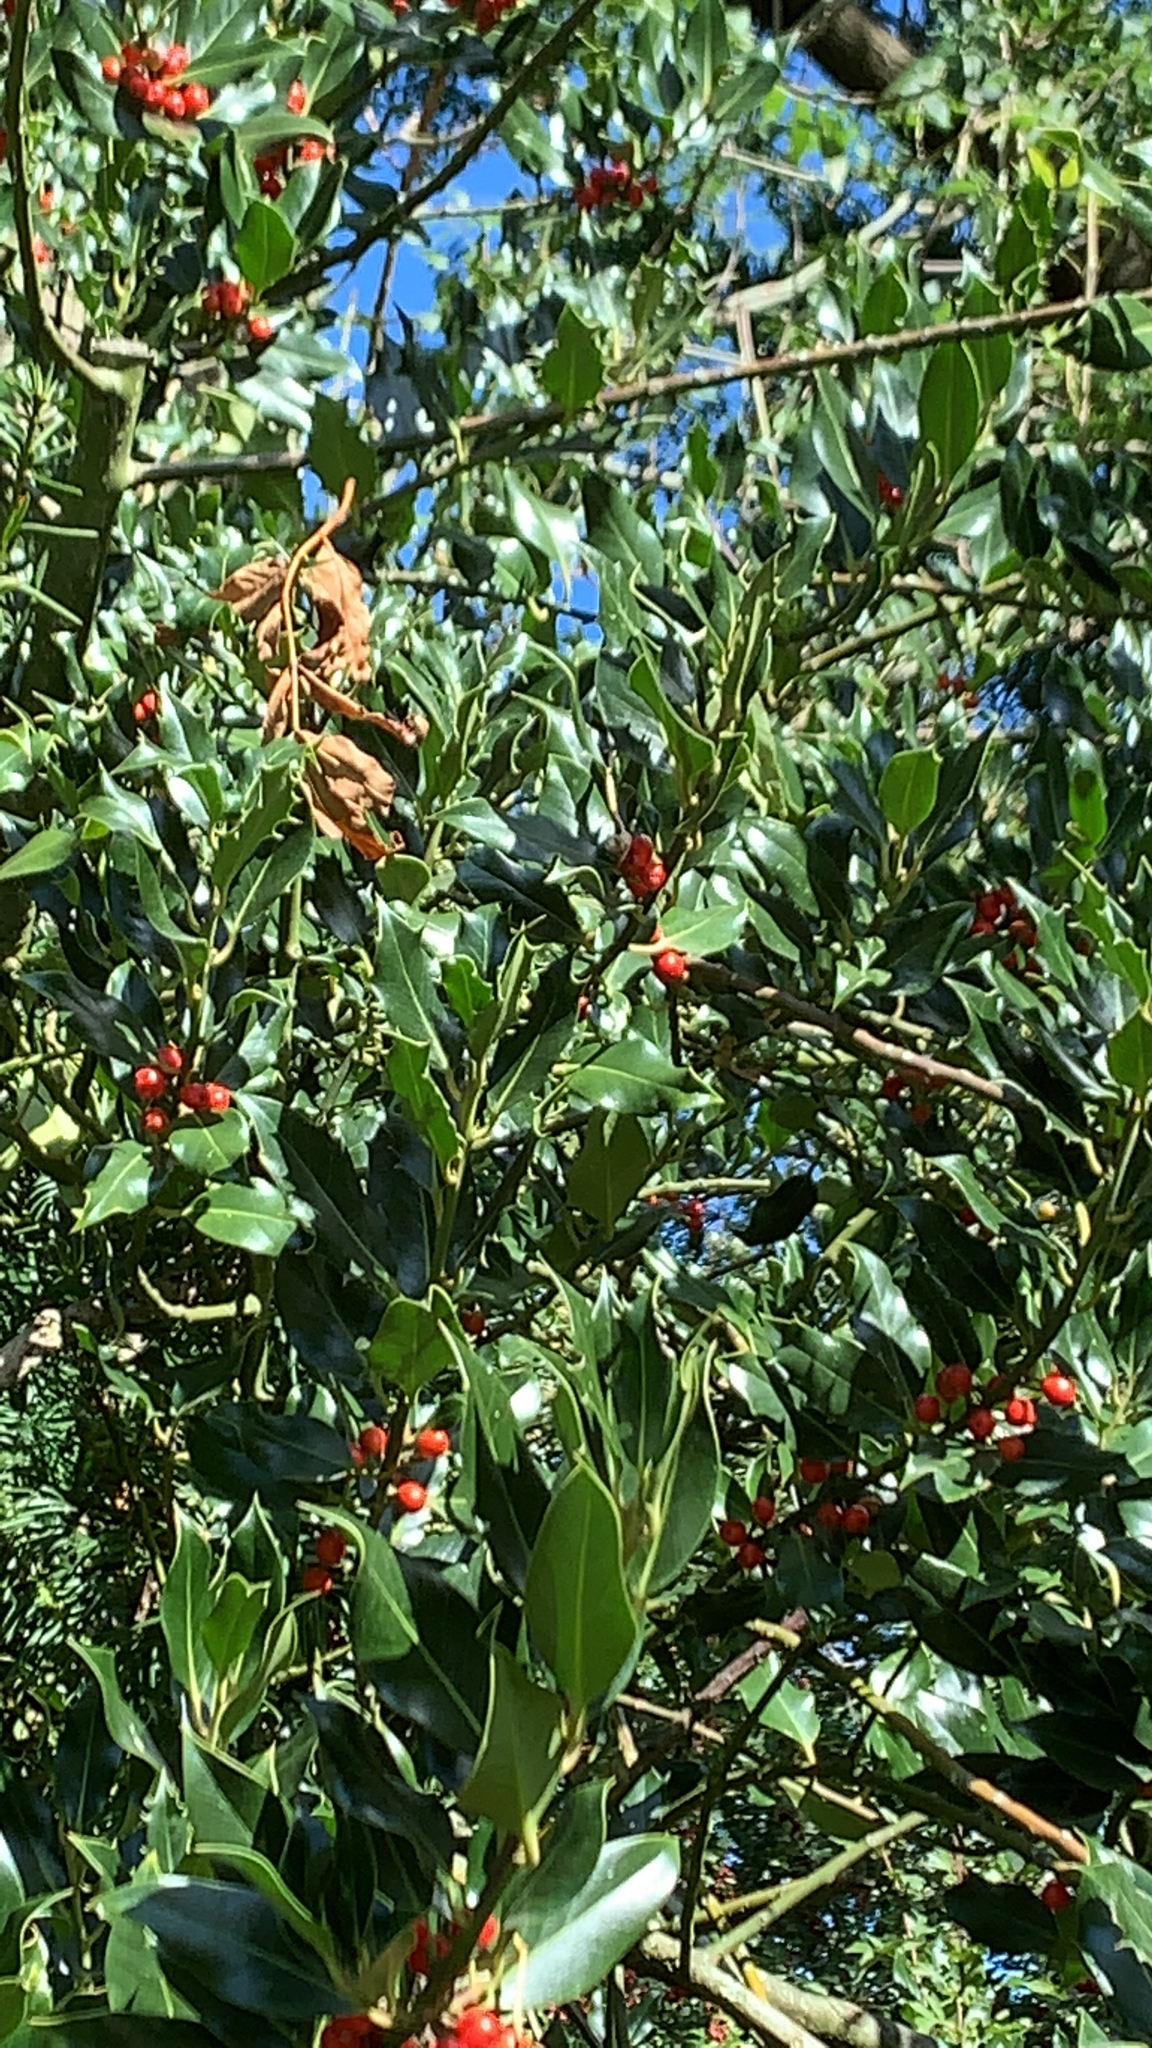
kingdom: Plantae
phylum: Tracheophyta
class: Magnoliopsida
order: Aquifoliales
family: Aquifoliaceae
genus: Ilex
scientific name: Ilex aquifolium
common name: English holly
